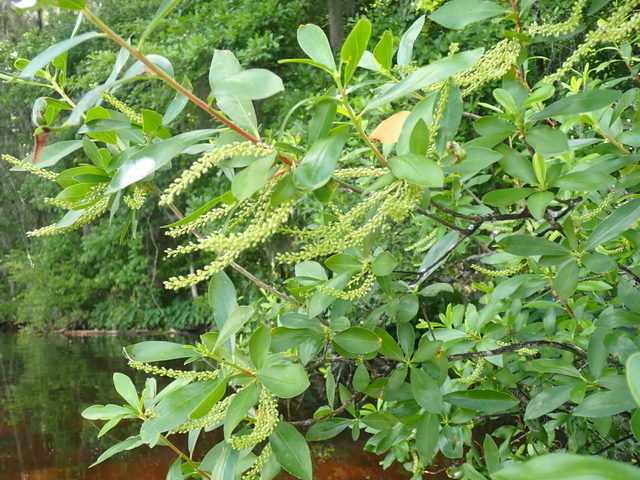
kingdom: Plantae
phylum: Tracheophyta
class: Magnoliopsida
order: Ericales
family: Cyrillaceae
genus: Cyrilla
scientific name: Cyrilla racemiflora
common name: Black titi
